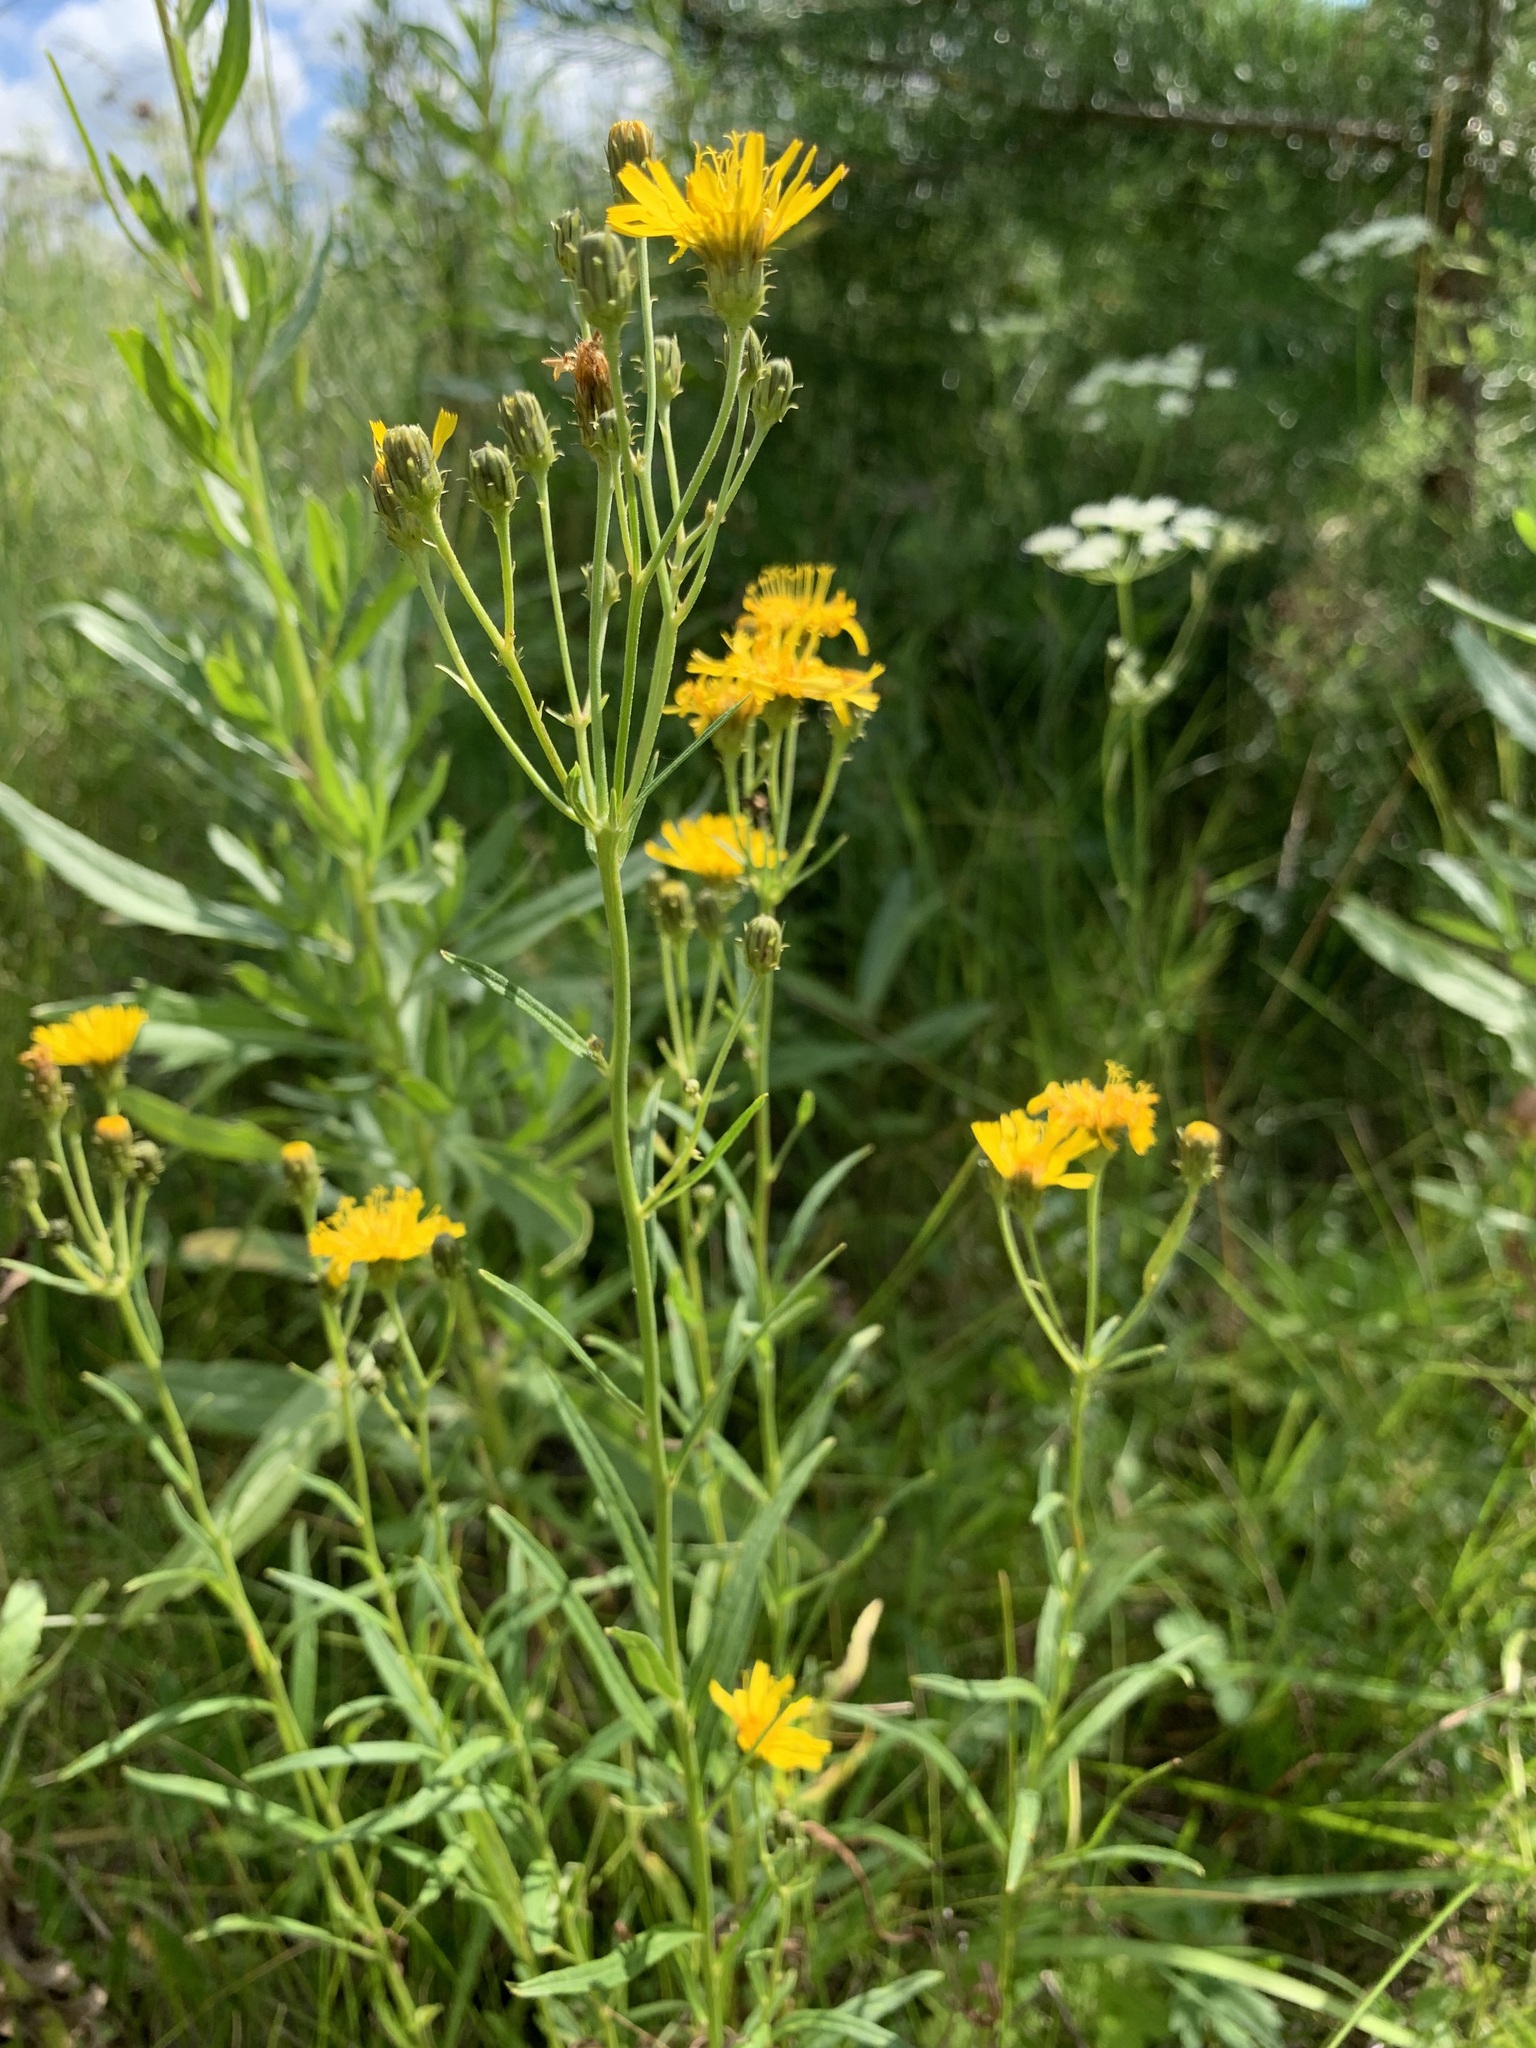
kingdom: Plantae
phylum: Tracheophyta
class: Magnoliopsida
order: Asterales
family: Asteraceae
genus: Hieracium
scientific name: Hieracium umbellatum
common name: Northern hawkweed
